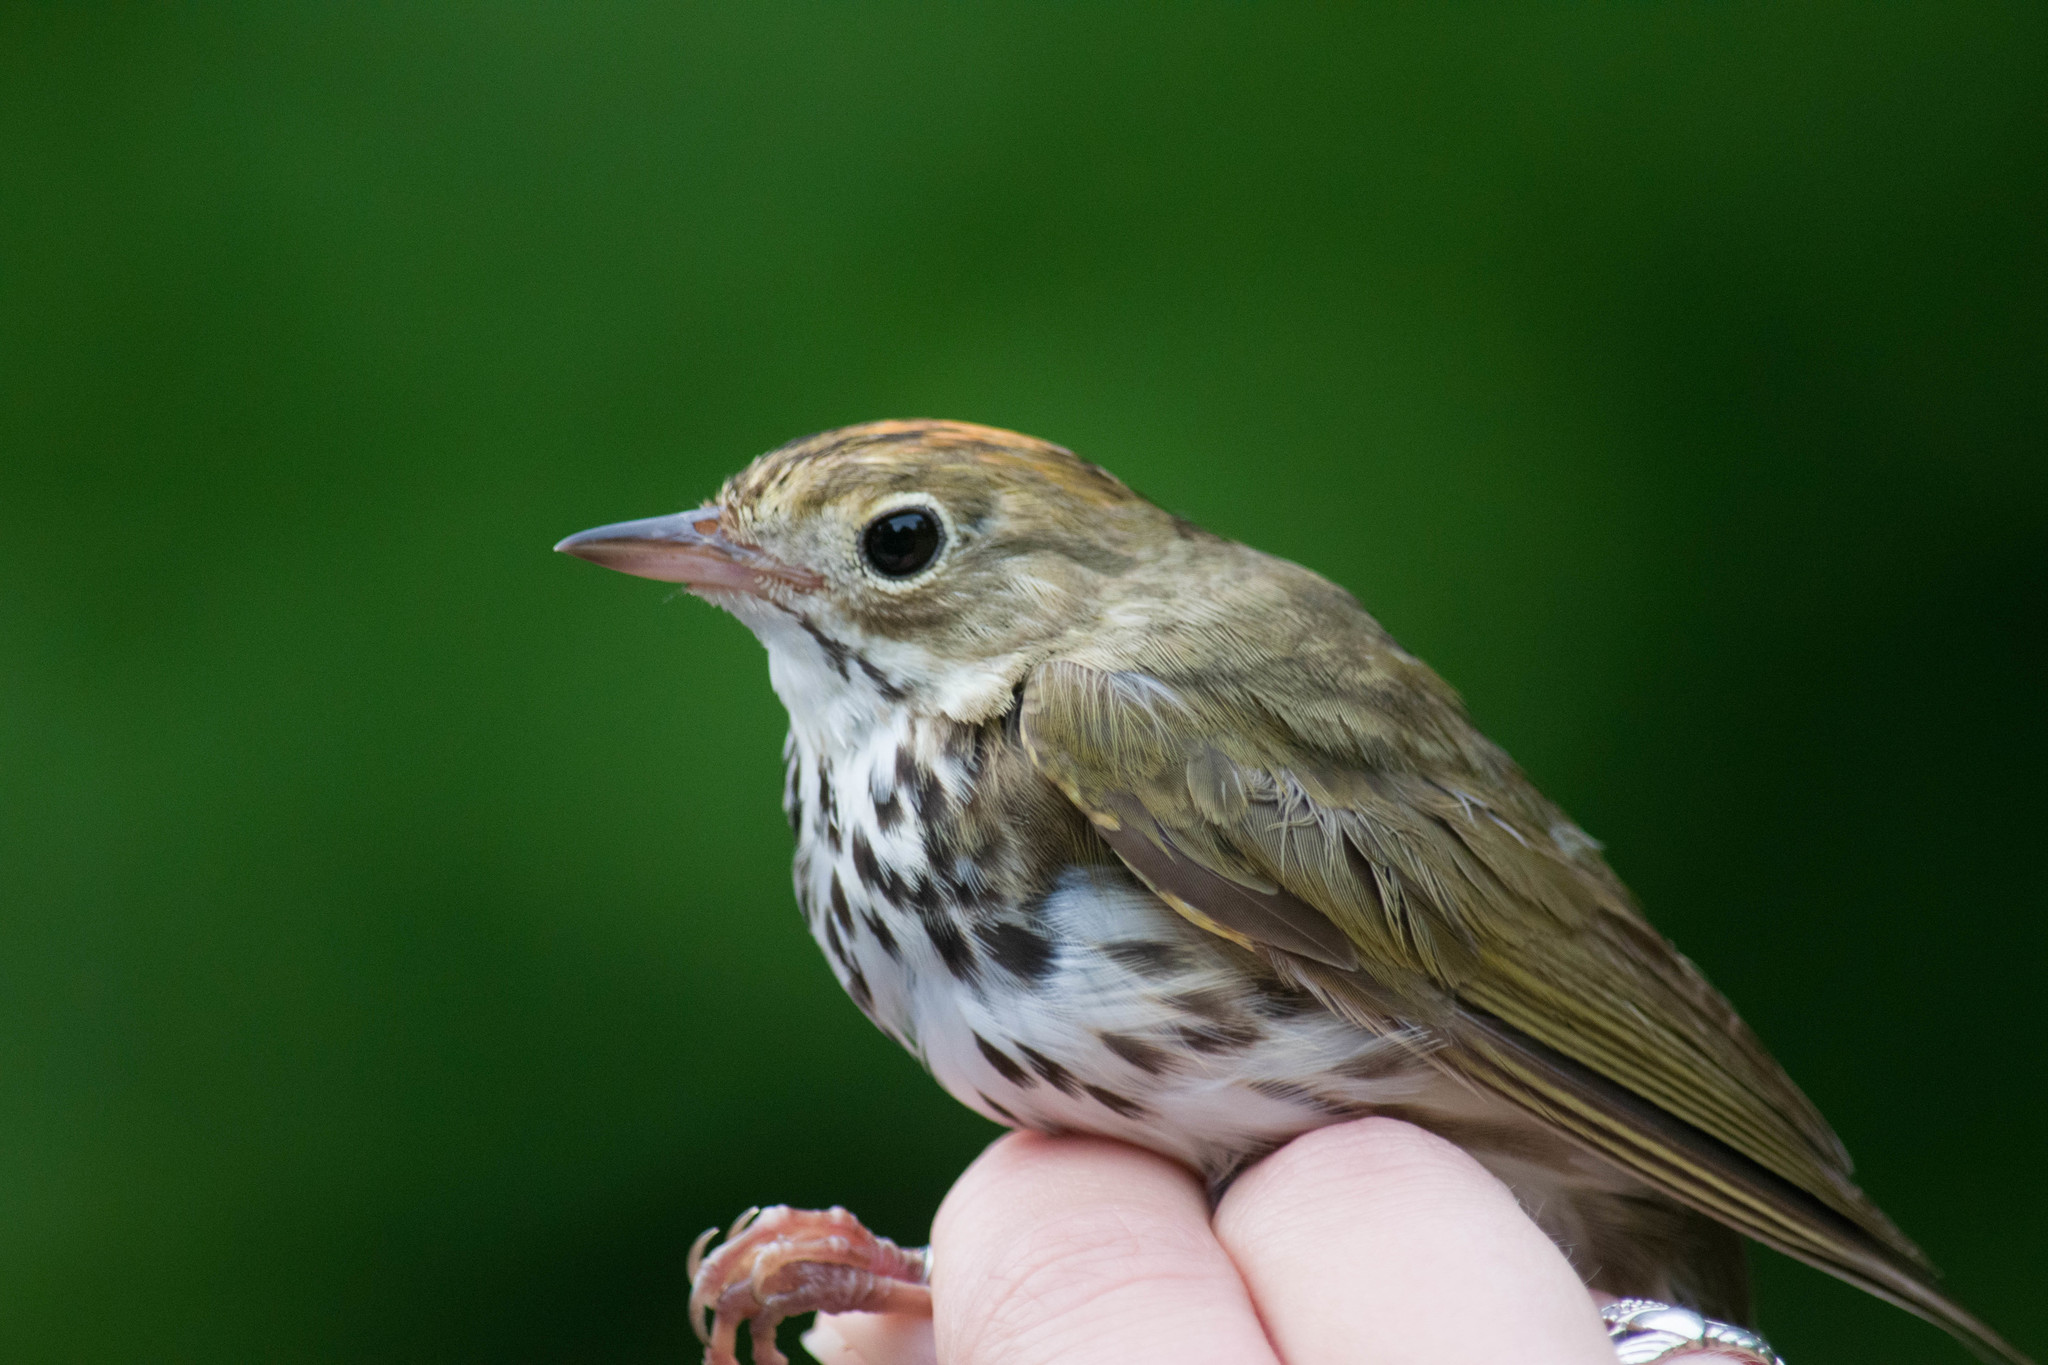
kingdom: Animalia
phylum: Chordata
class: Aves
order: Passeriformes
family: Parulidae
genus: Seiurus
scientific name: Seiurus aurocapilla
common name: Ovenbird
